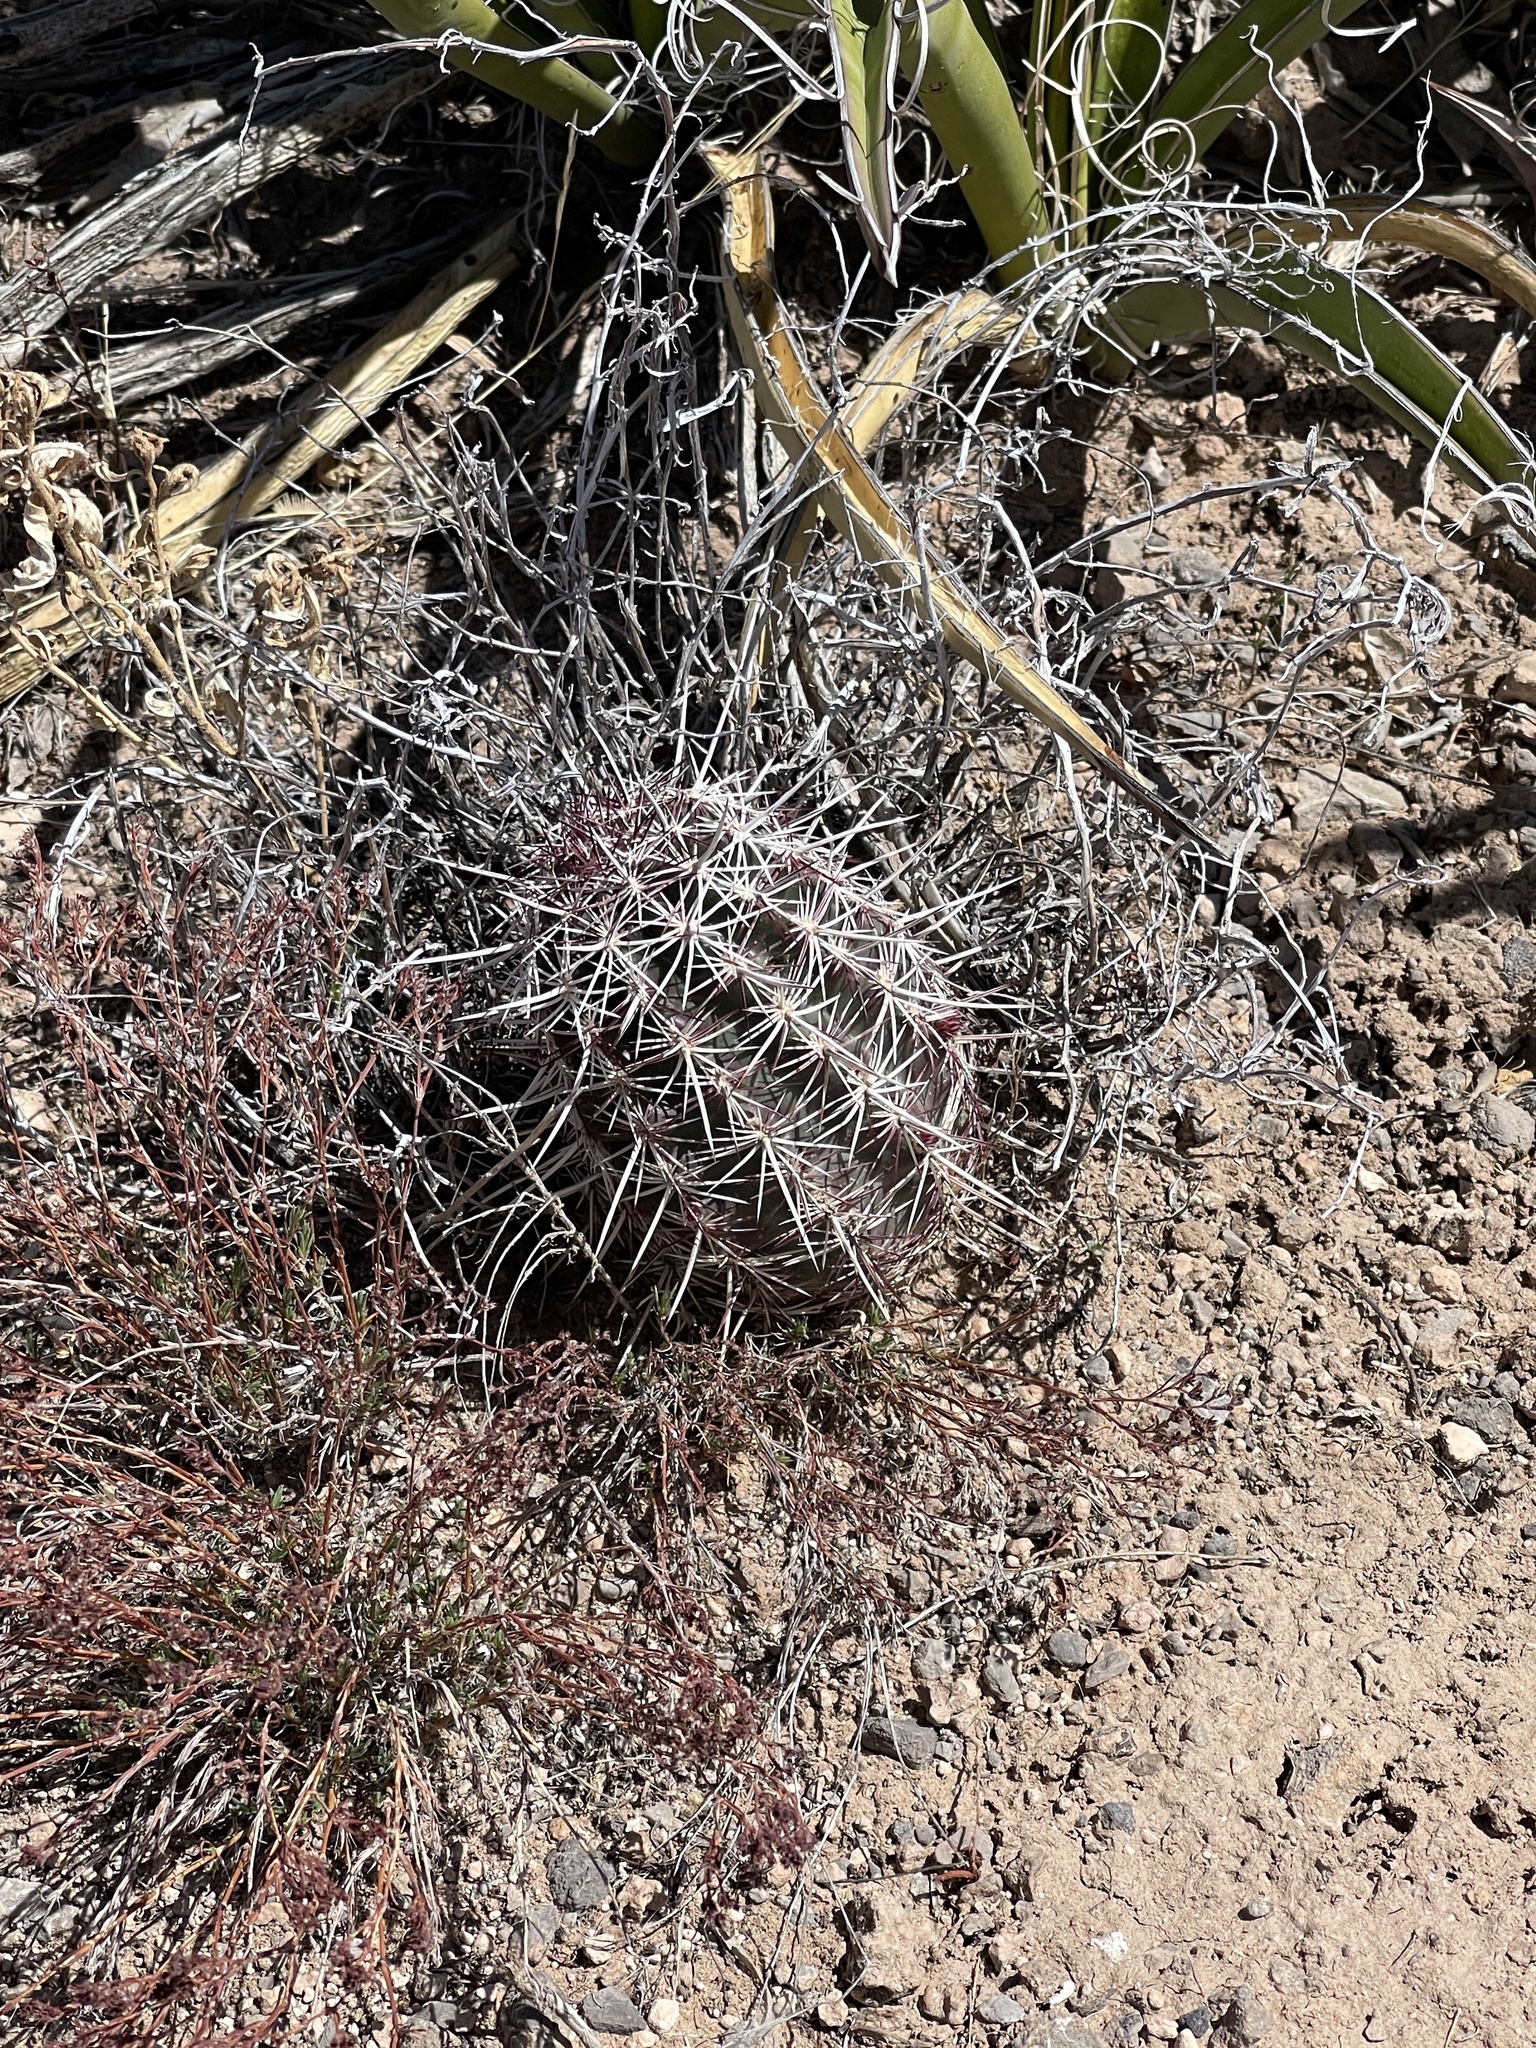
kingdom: Plantae
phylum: Tracheophyta
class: Magnoliopsida
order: Caryophyllales
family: Cactaceae
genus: Echinocereus
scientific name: Echinocereus viridiflorus
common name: Nylon hedgehog cactus
